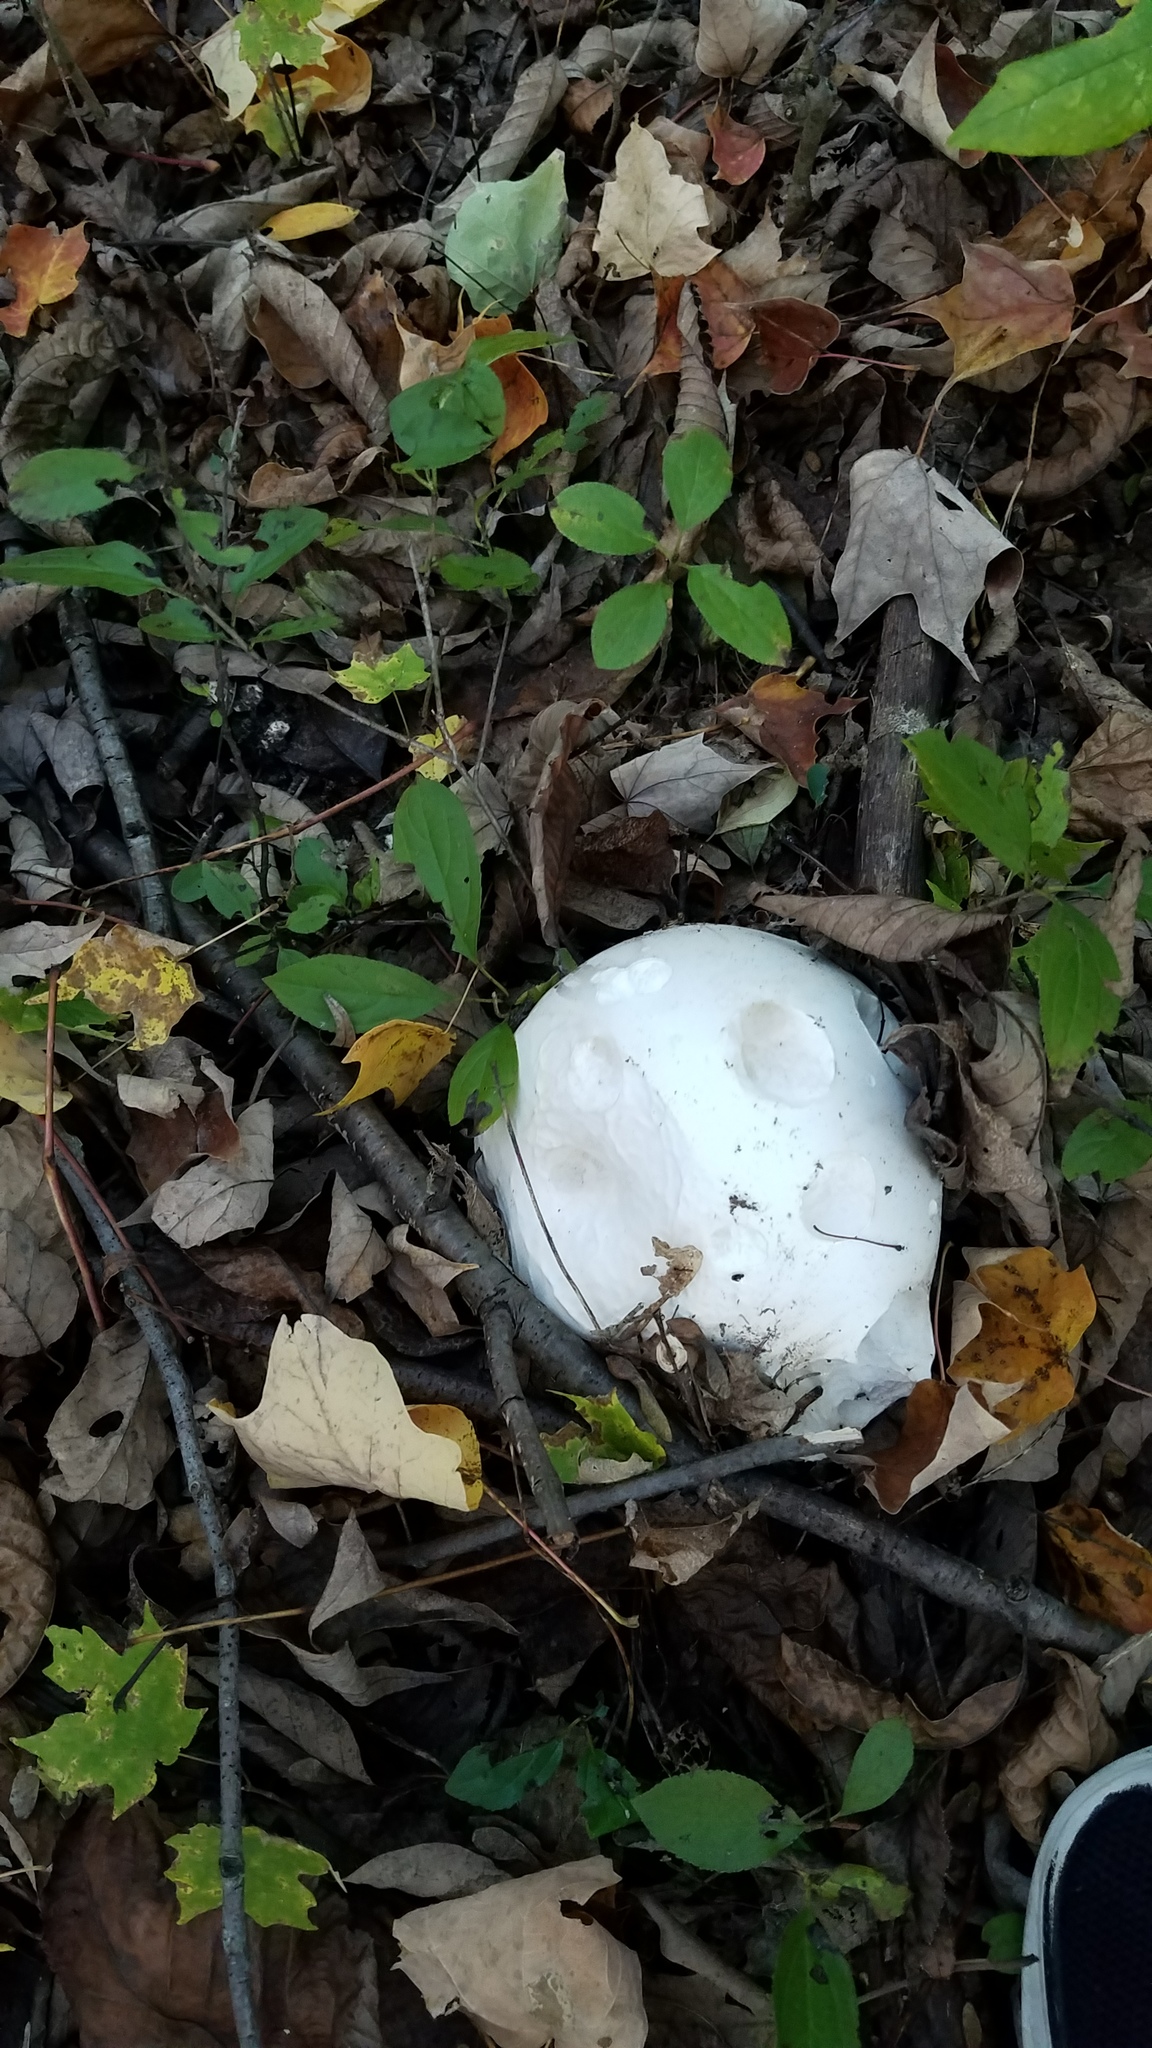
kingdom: Fungi
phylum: Basidiomycota
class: Agaricomycetes
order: Agaricales
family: Lycoperdaceae
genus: Calvatia
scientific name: Calvatia gigantea
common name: Giant puffball
